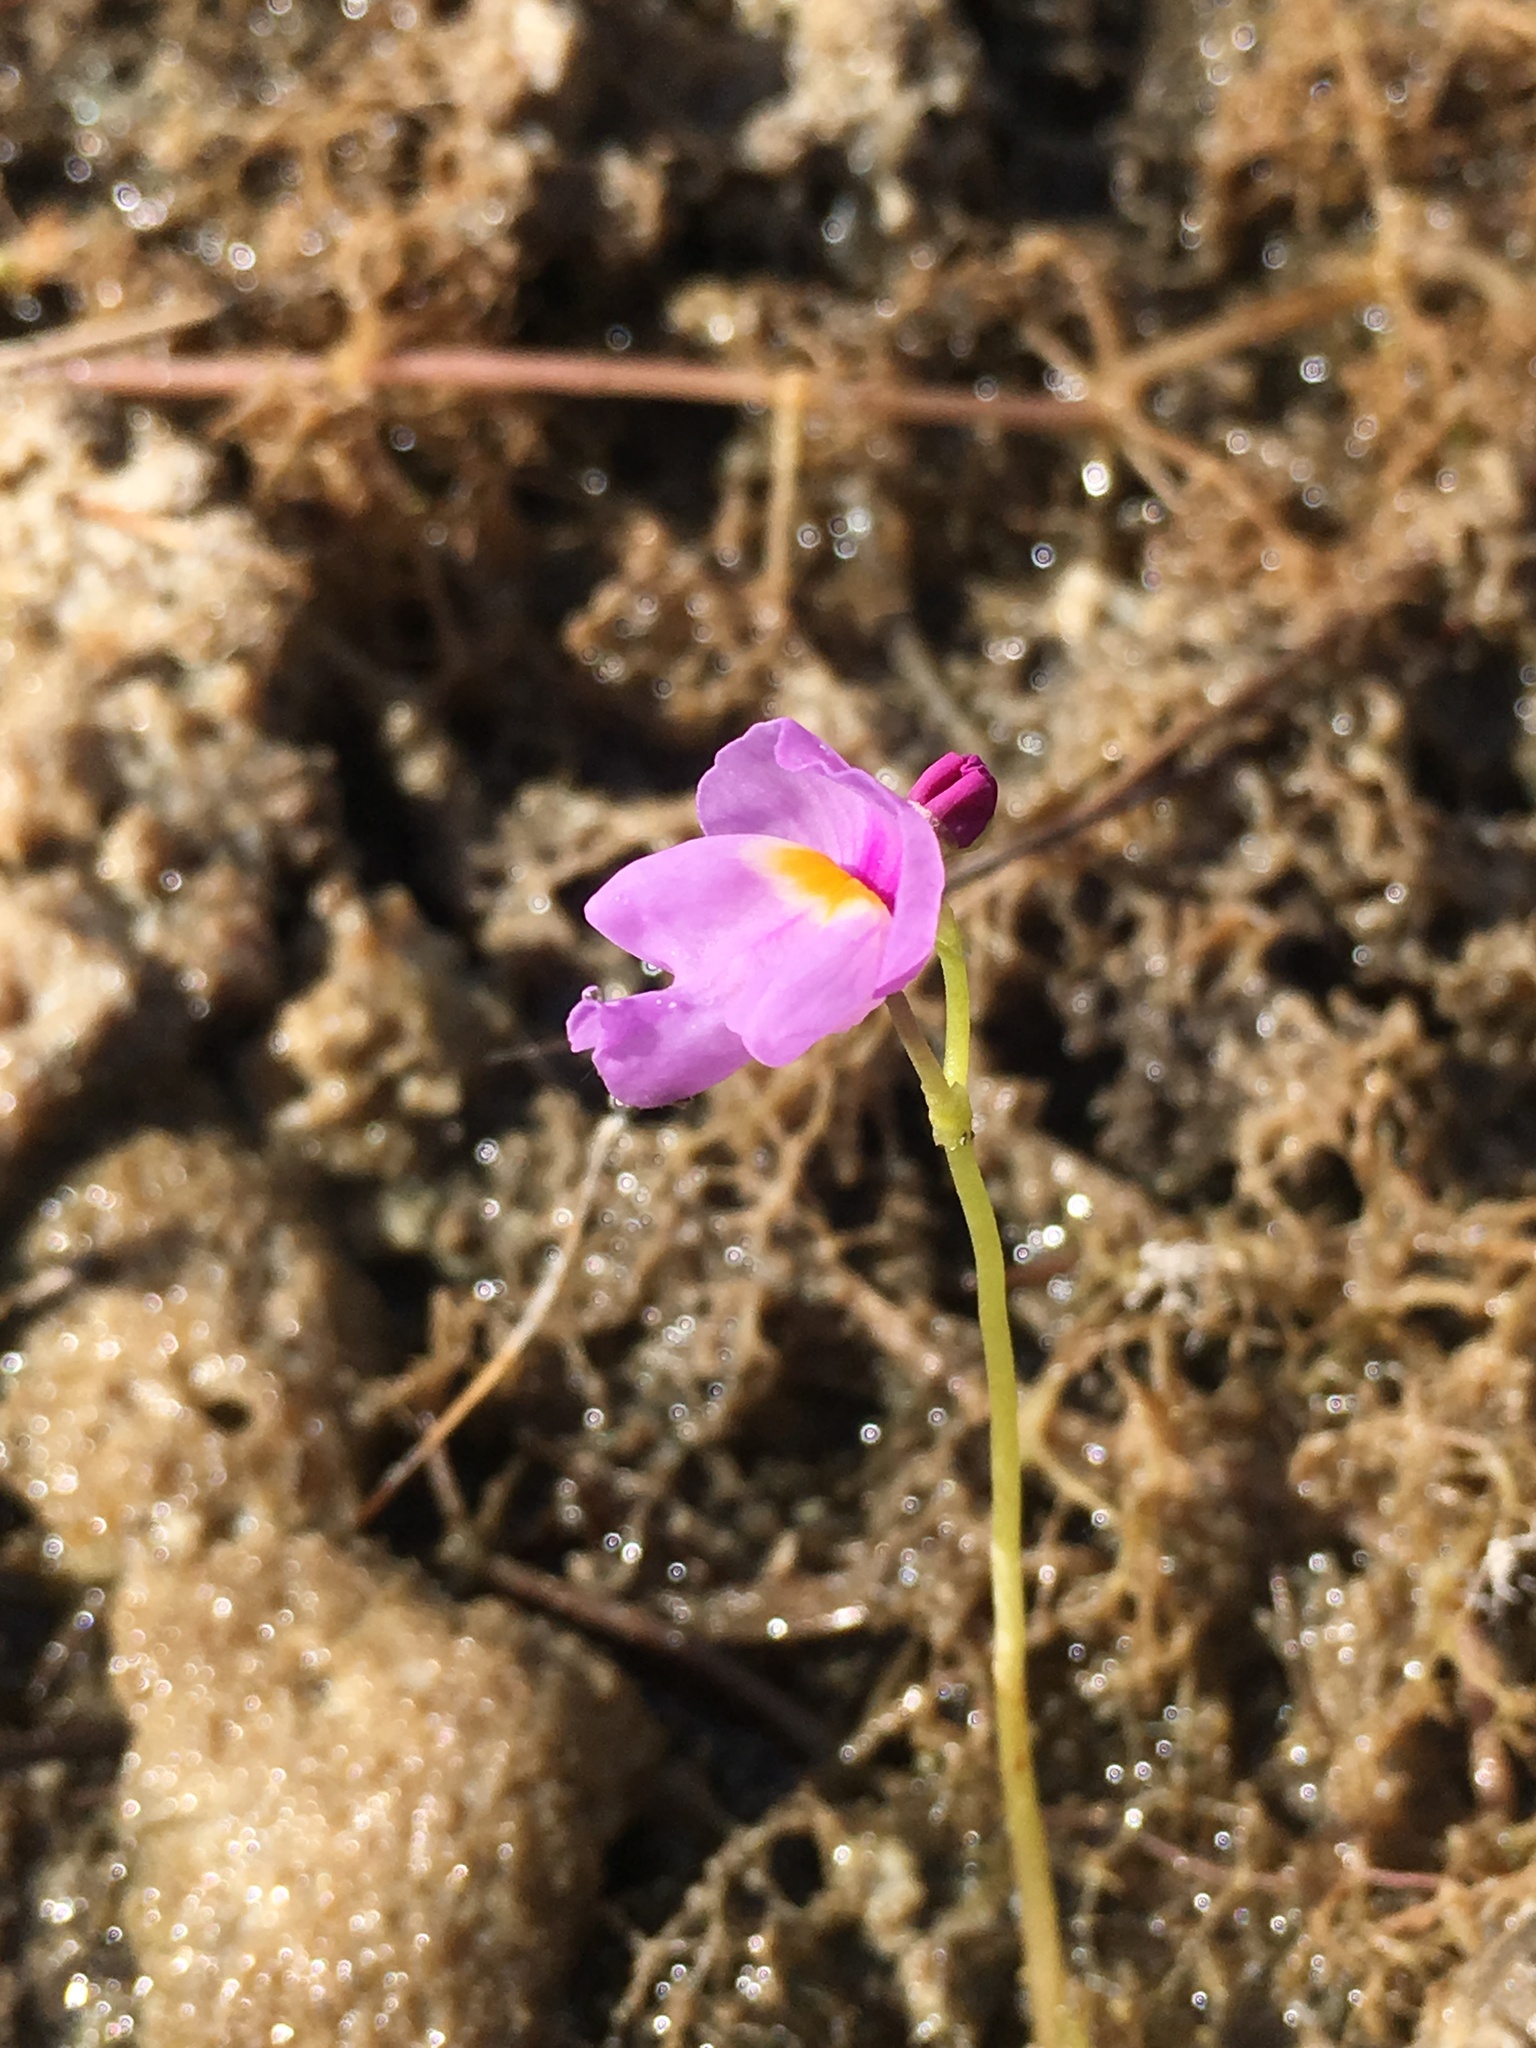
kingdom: Plantae
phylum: Tracheophyta
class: Magnoliopsida
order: Lamiales
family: Lentibulariaceae
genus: Utricularia
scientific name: Utricularia purpurea
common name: Eastern purple bladderwort
